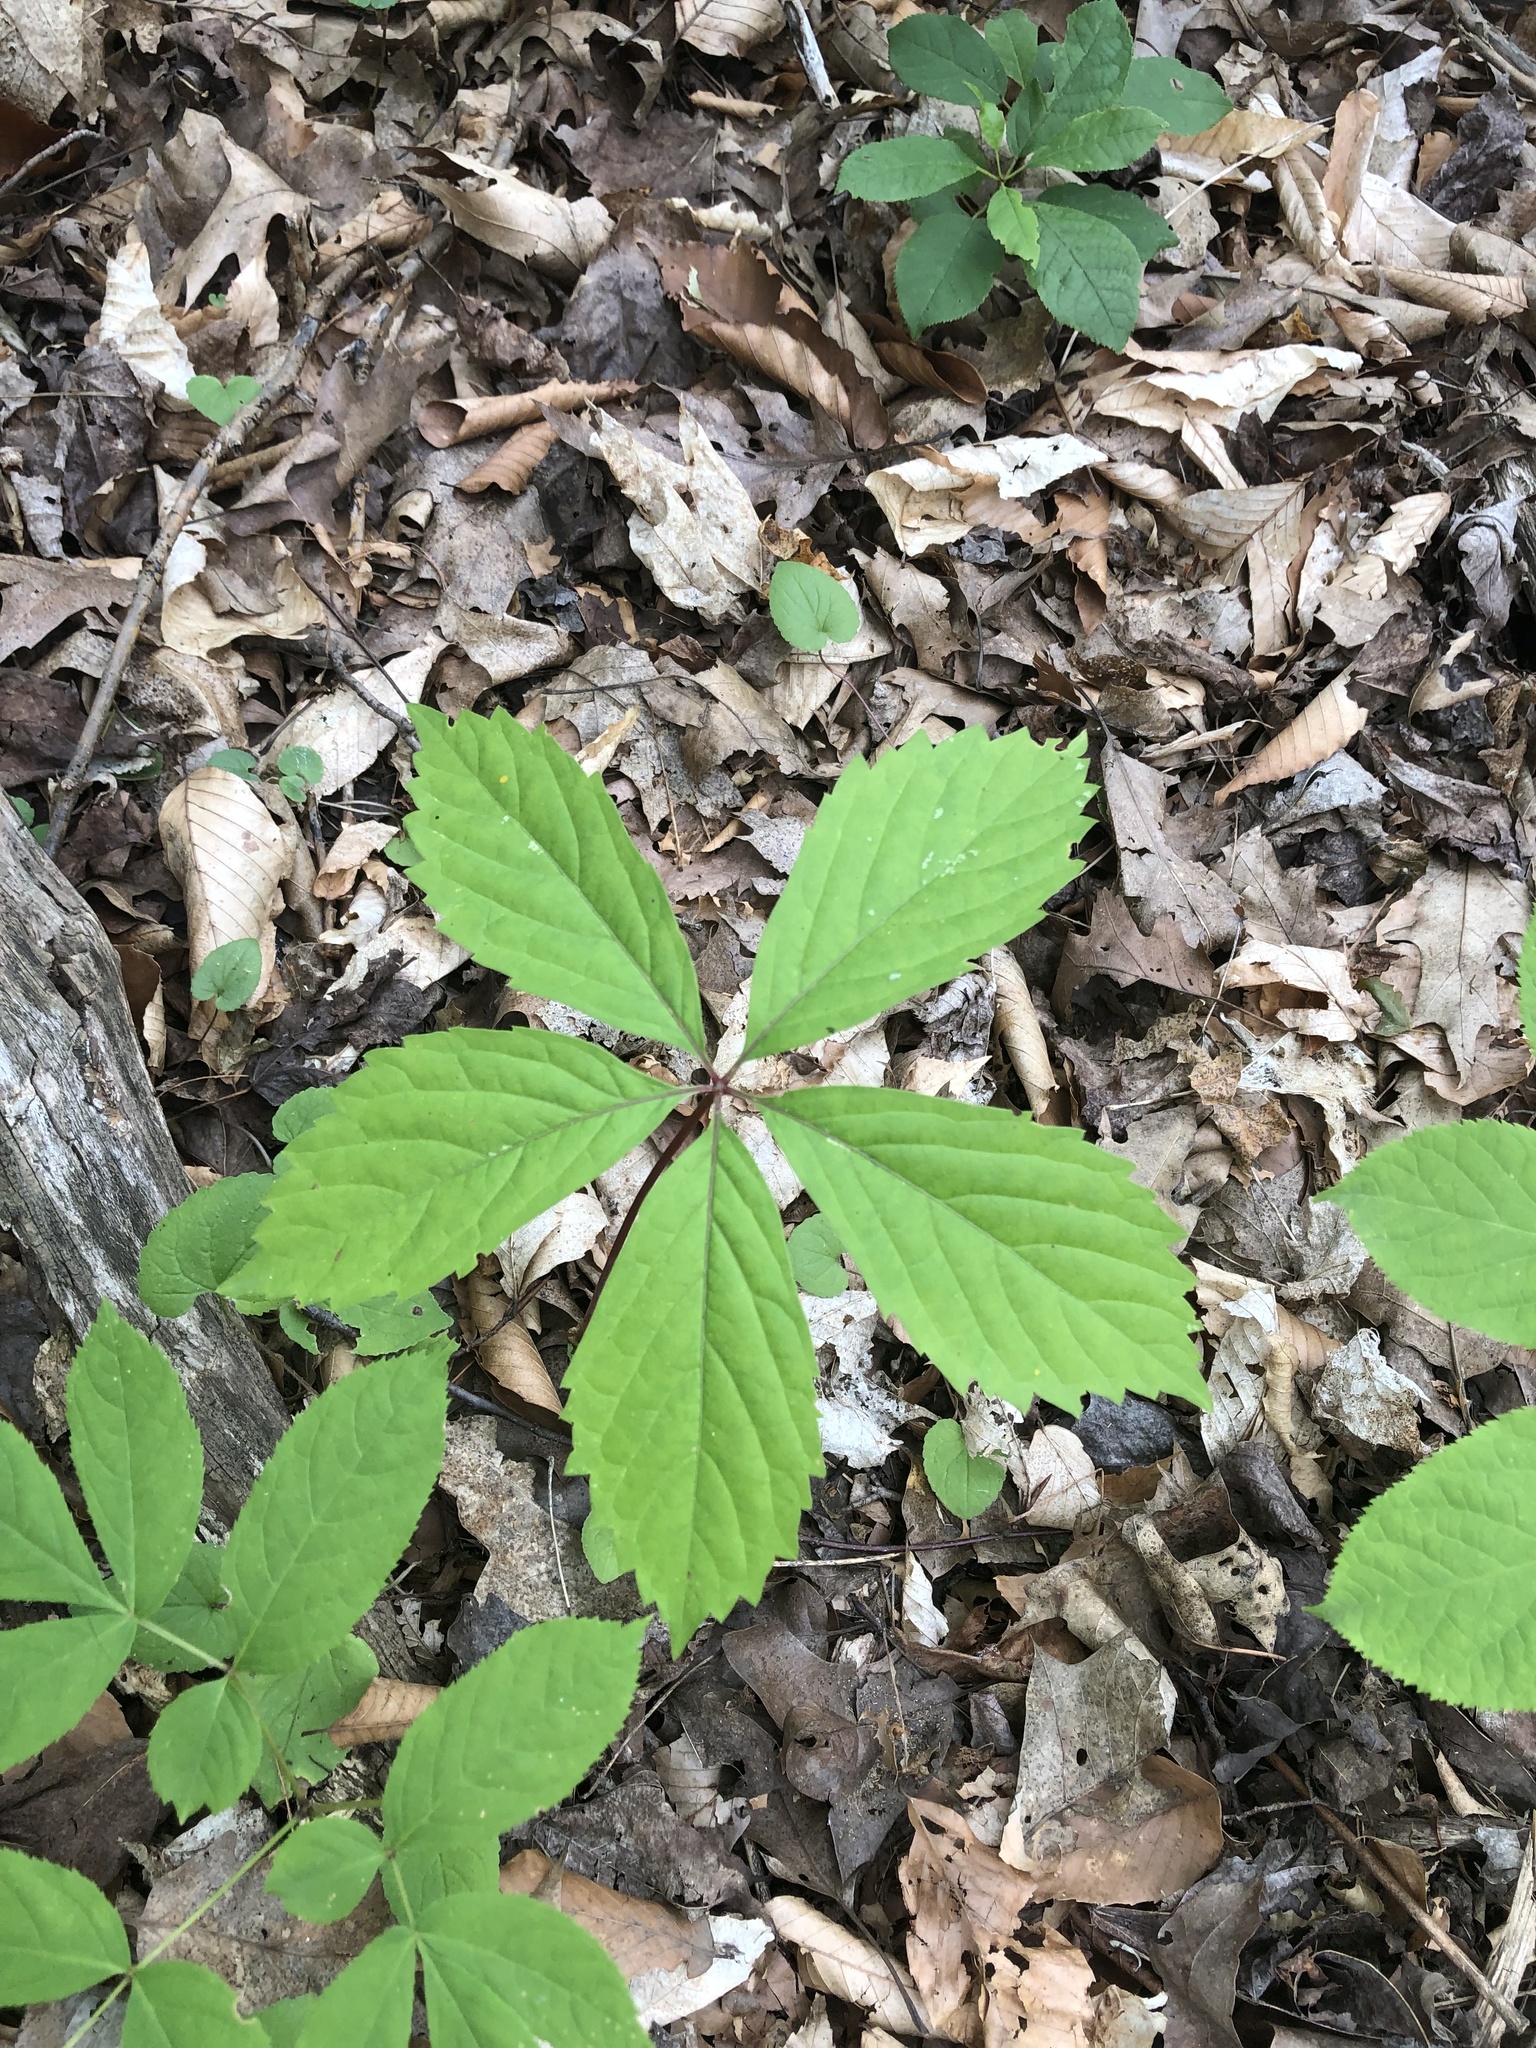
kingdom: Plantae
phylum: Tracheophyta
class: Magnoliopsida
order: Vitales
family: Vitaceae
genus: Parthenocissus
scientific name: Parthenocissus quinquefolia
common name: Virginia-creeper
